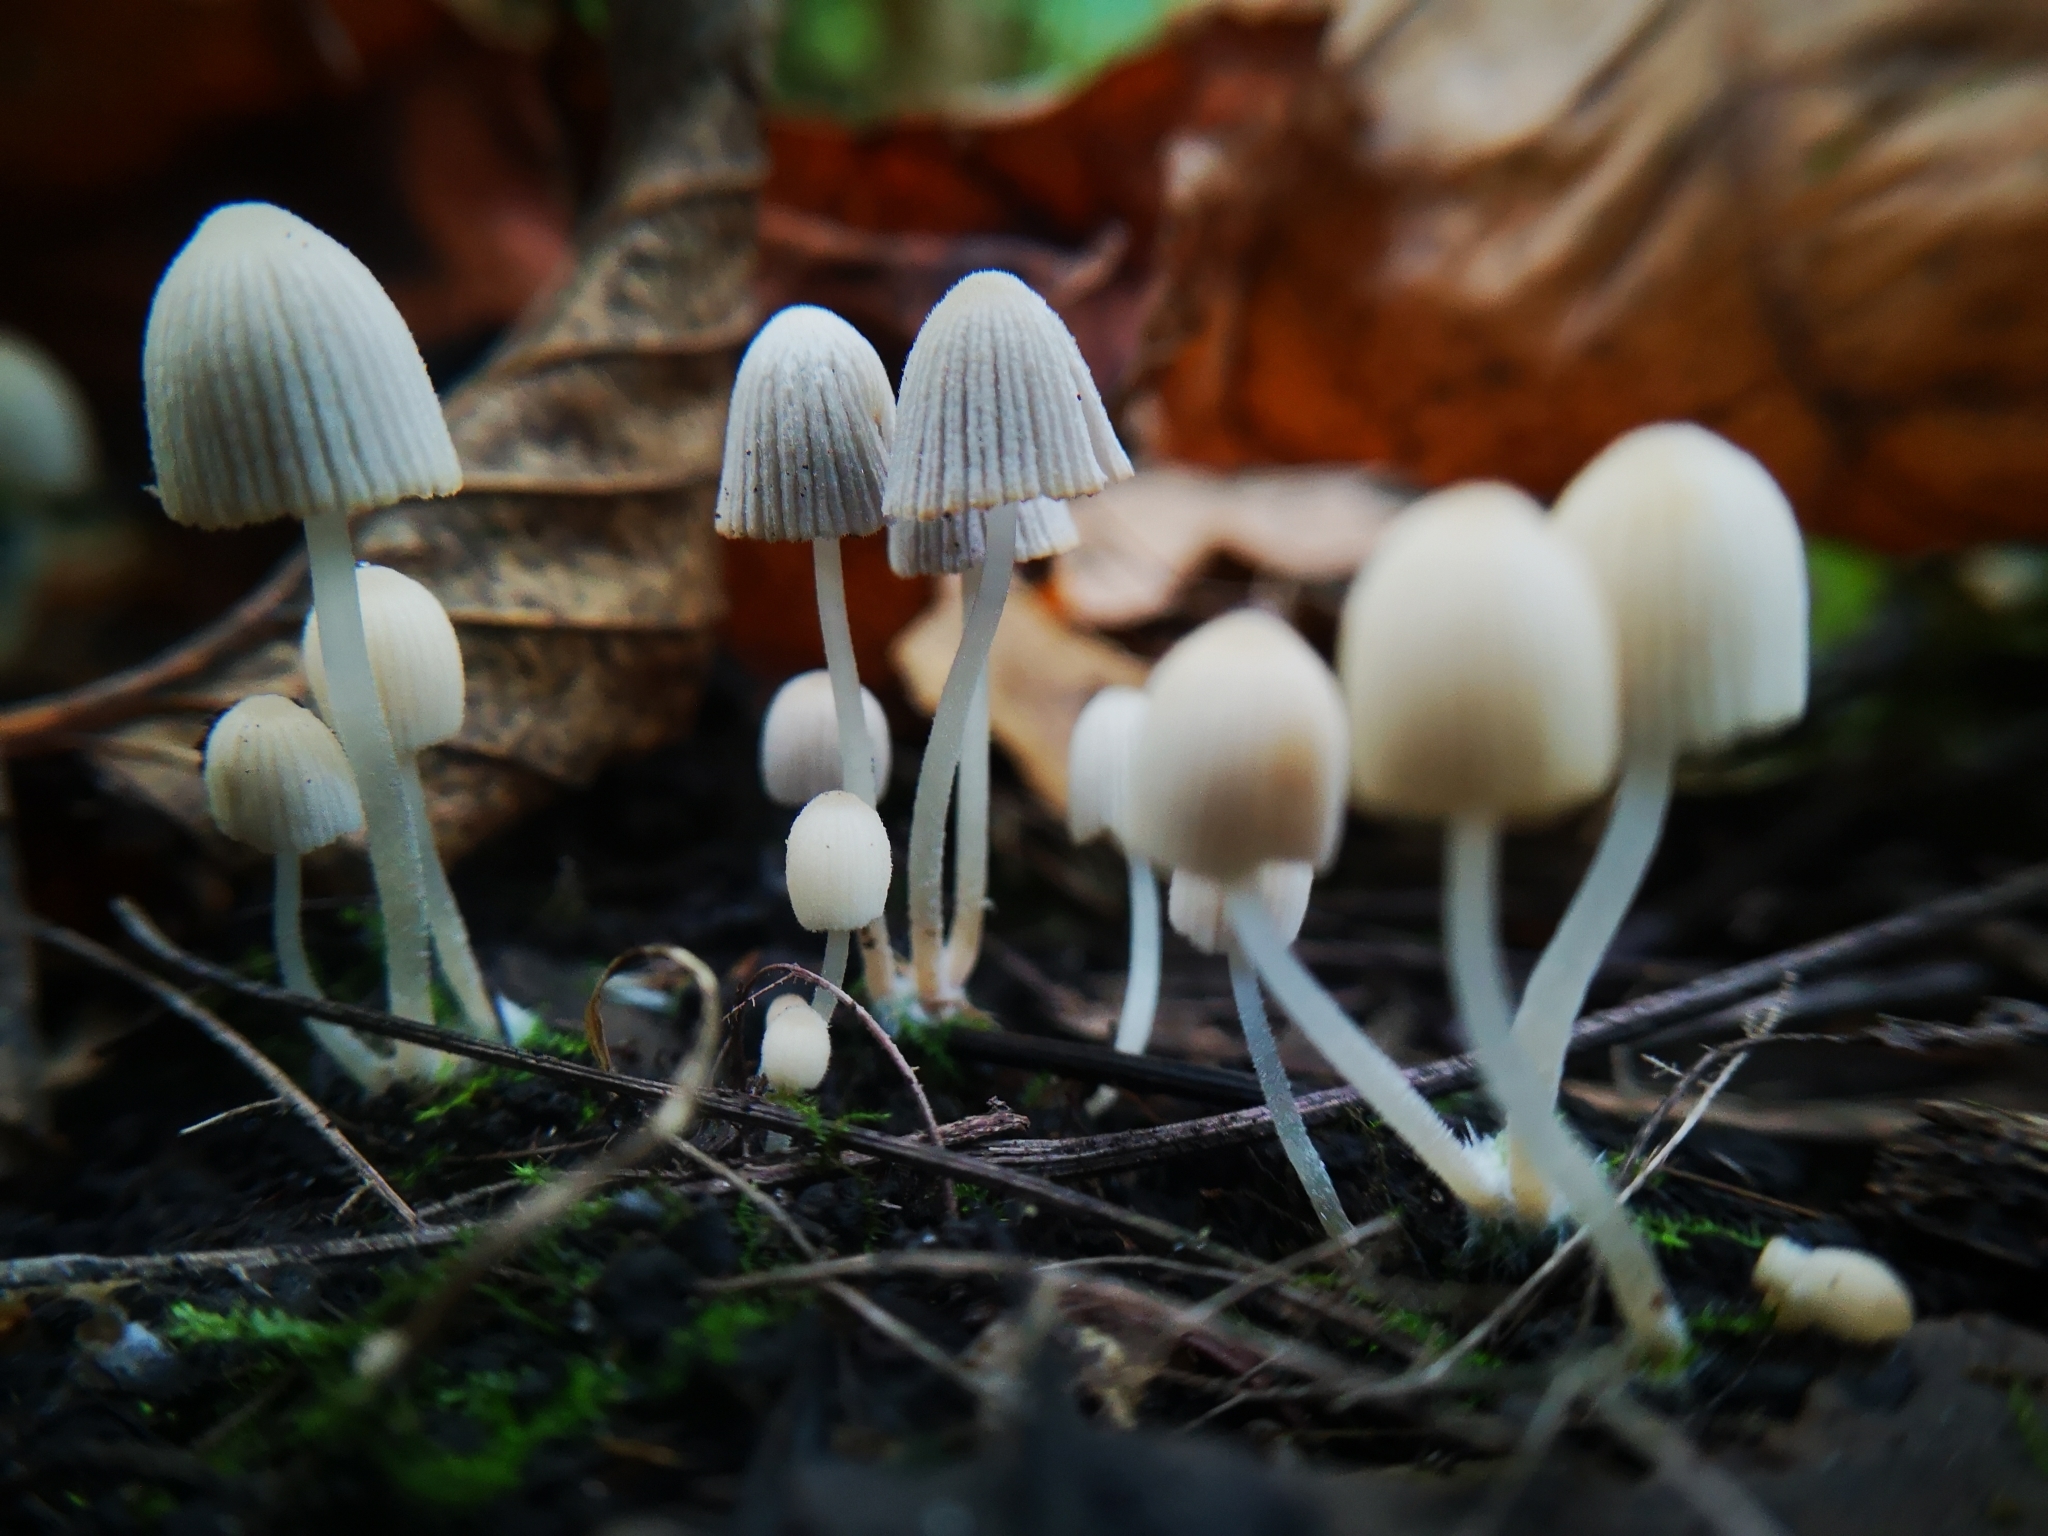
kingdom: Fungi
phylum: Basidiomycota
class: Agaricomycetes
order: Agaricales
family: Psathyrellaceae
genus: Coprinellus
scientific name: Coprinellus disseminatus
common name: Fairies' bonnets
